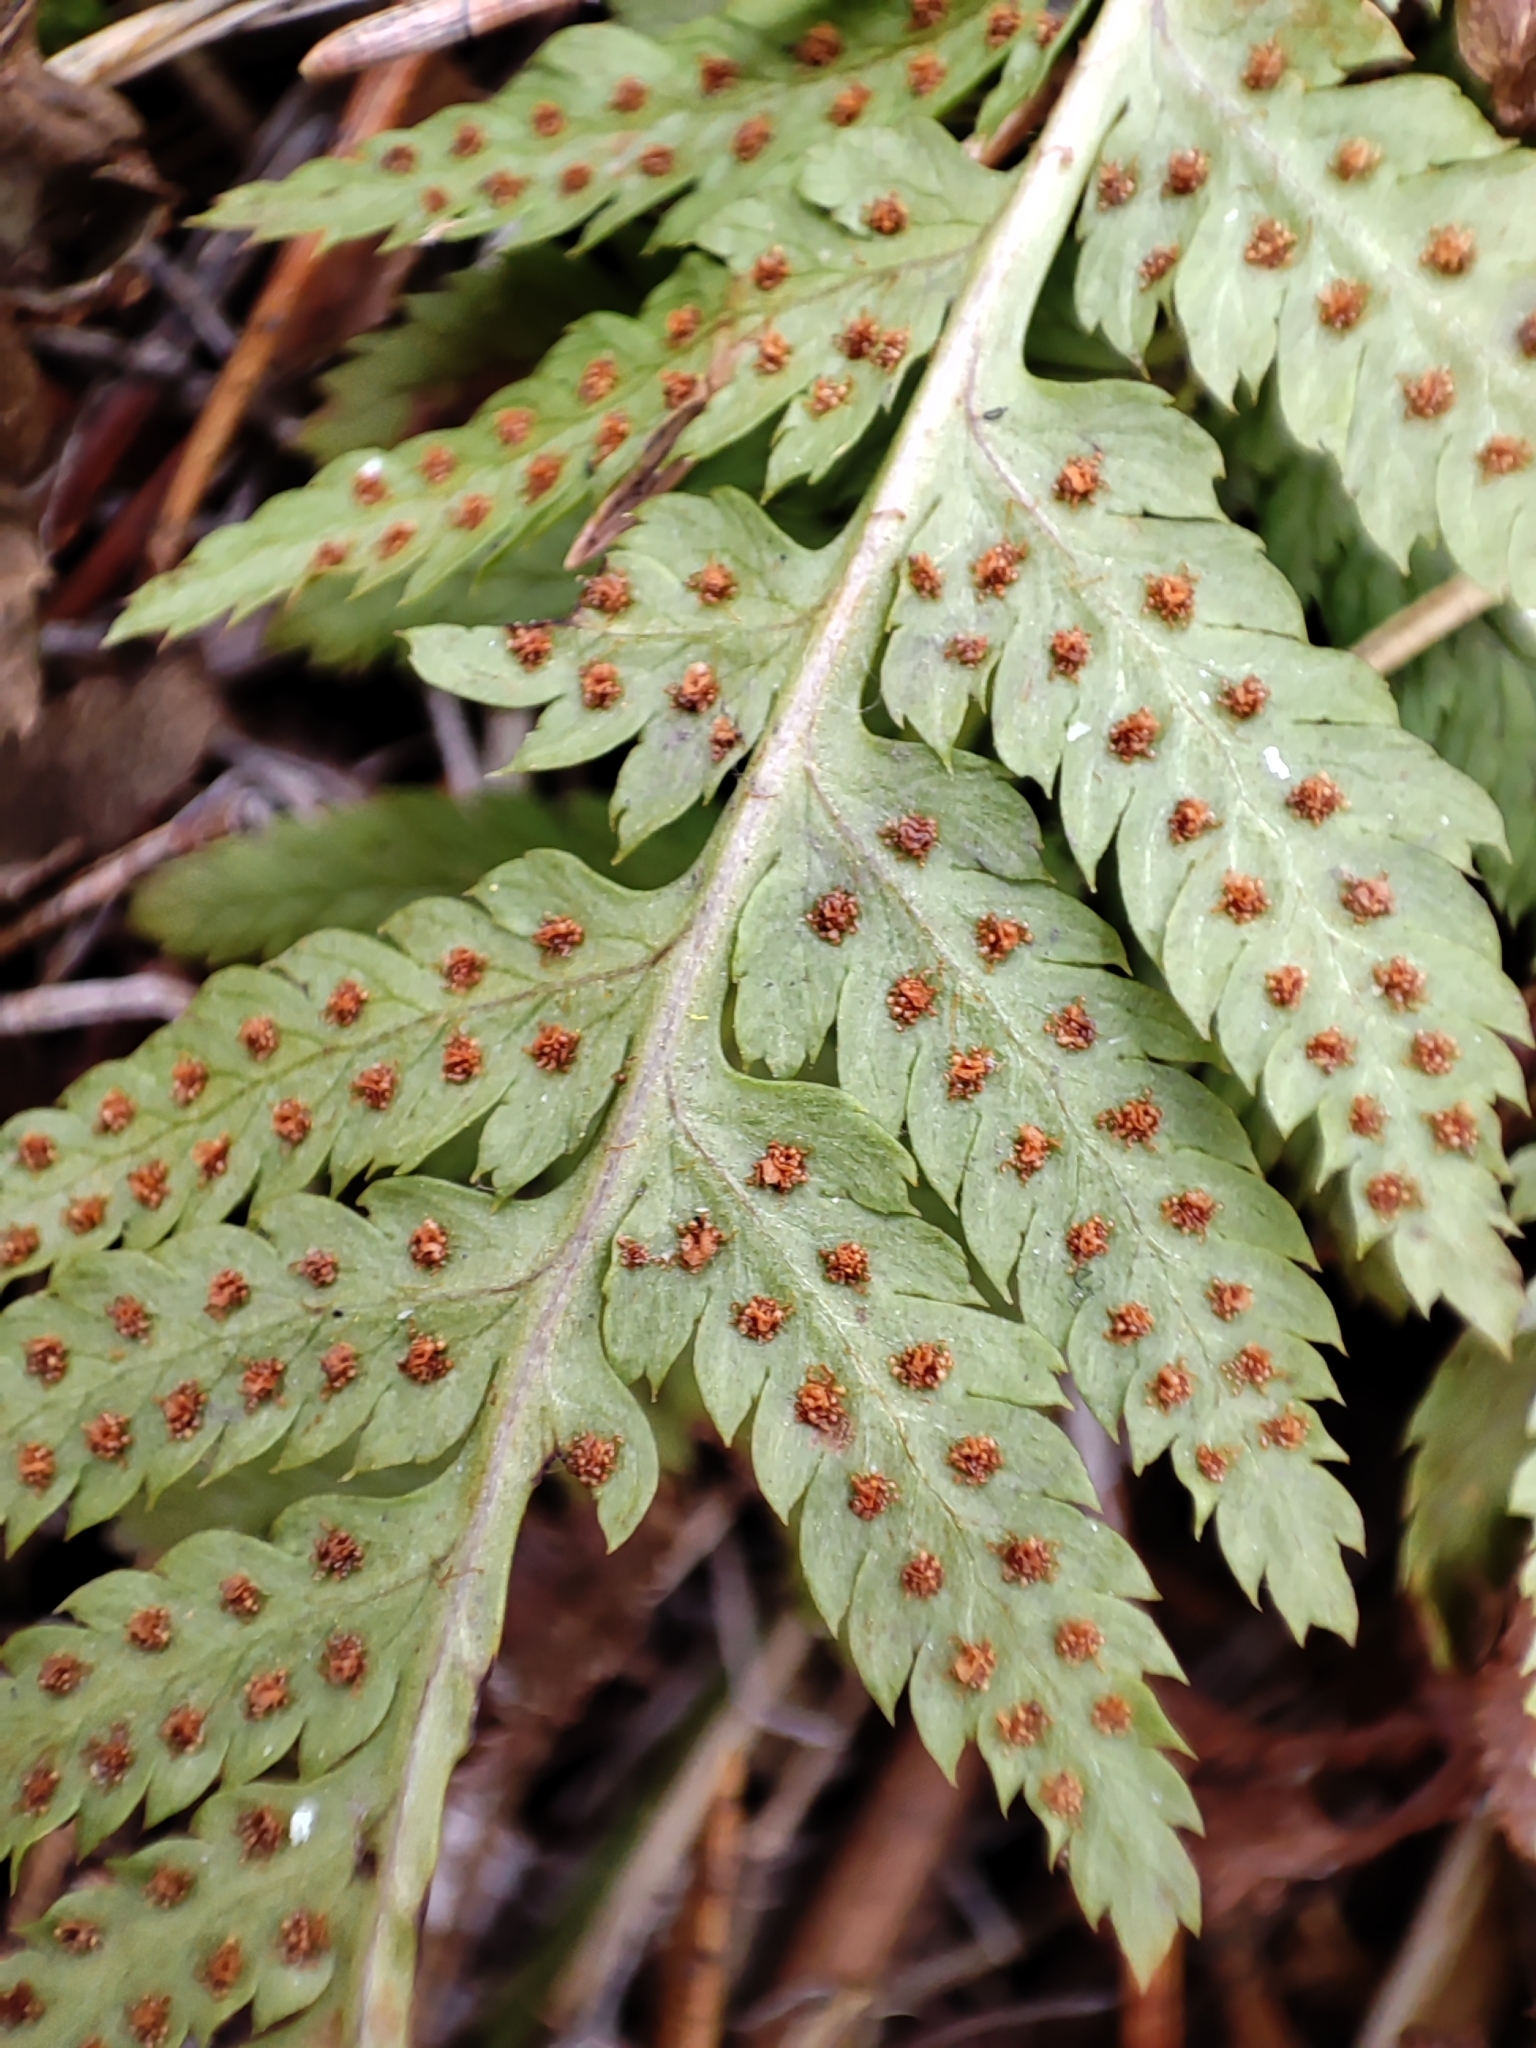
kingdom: Plantae
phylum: Tracheophyta
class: Polypodiopsida
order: Polypodiales
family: Dryopteridaceae
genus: Dryopteris
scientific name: Dryopteris carthusiana
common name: Narrow buckler-fern
